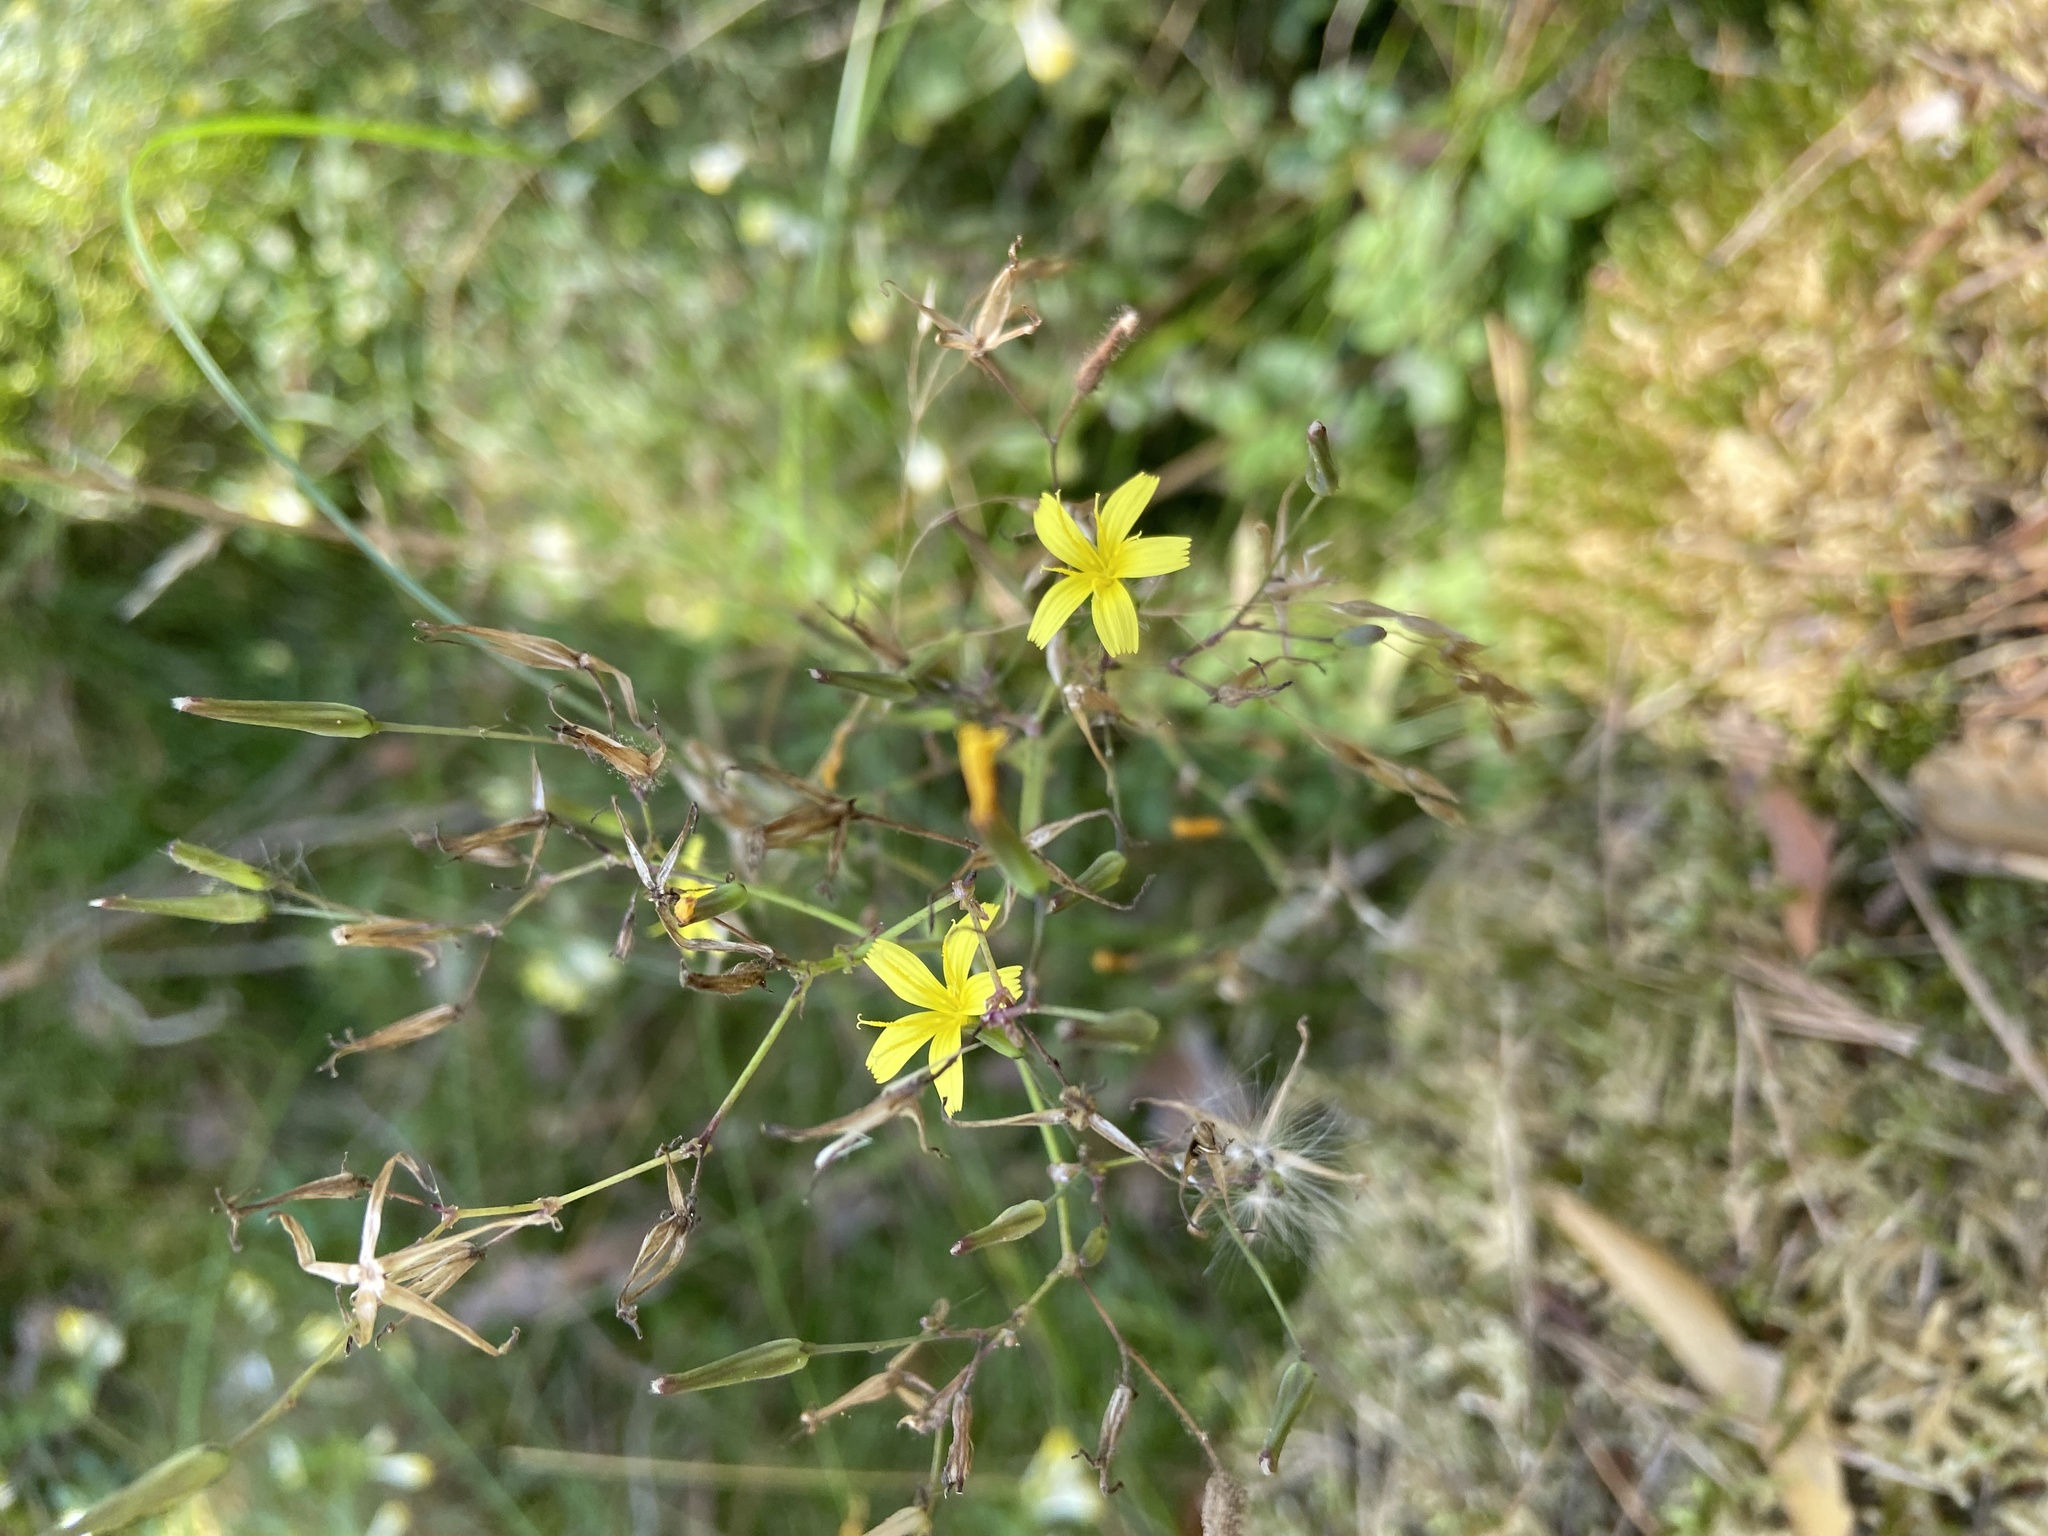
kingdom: Plantae
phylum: Tracheophyta
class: Magnoliopsida
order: Asterales
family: Asteraceae
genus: Mycelis
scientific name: Mycelis muralis
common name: Wall lettuce
